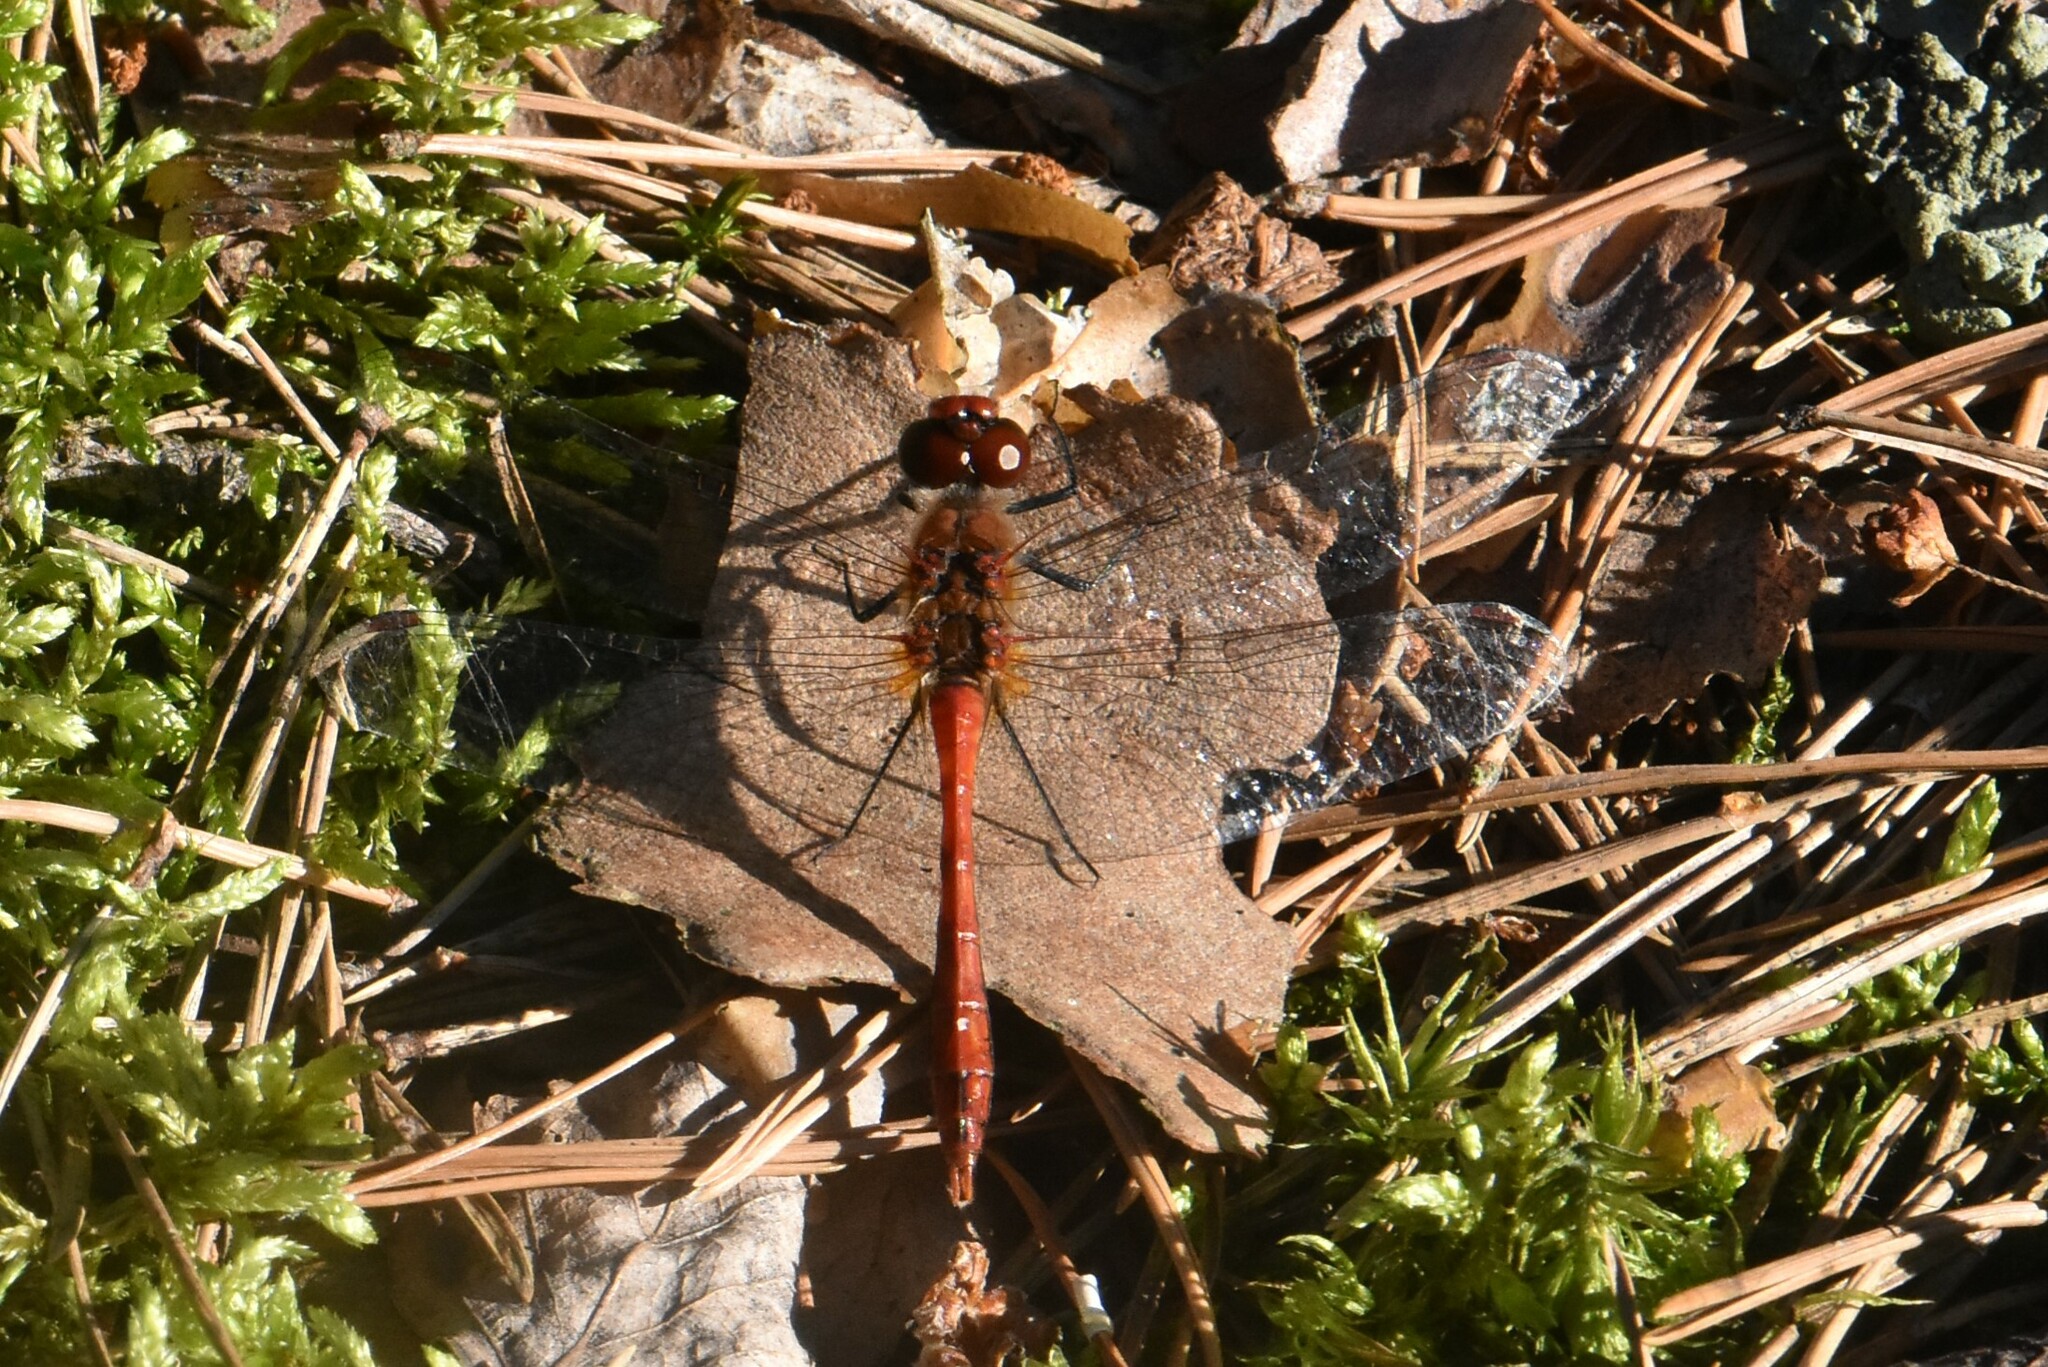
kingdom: Animalia
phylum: Arthropoda
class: Insecta
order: Odonata
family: Libellulidae
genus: Sympetrum
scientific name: Sympetrum sanguineum
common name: Ruddy darter
